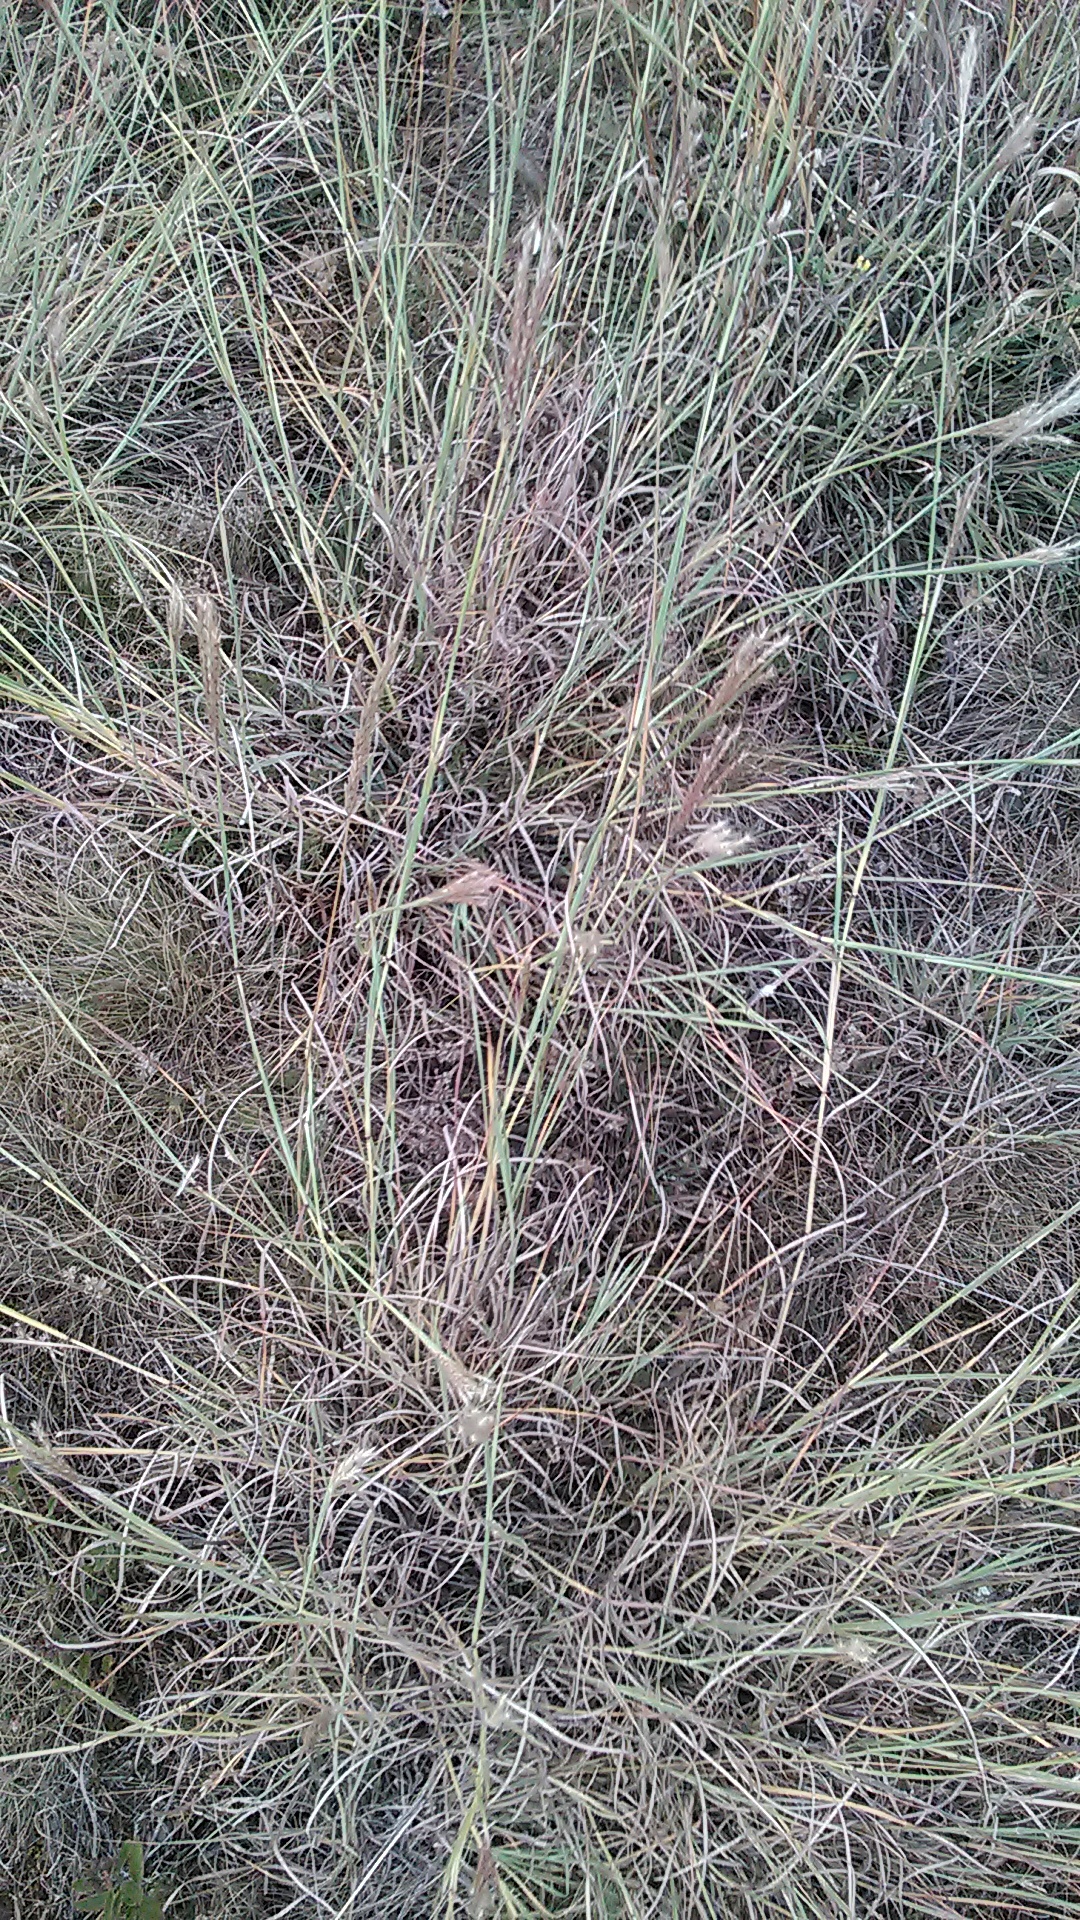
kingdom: Plantae
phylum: Tracheophyta
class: Liliopsida
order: Poales
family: Poaceae
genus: Bothriochloa
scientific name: Bothriochloa ischaemum
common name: Yellow bluestem
